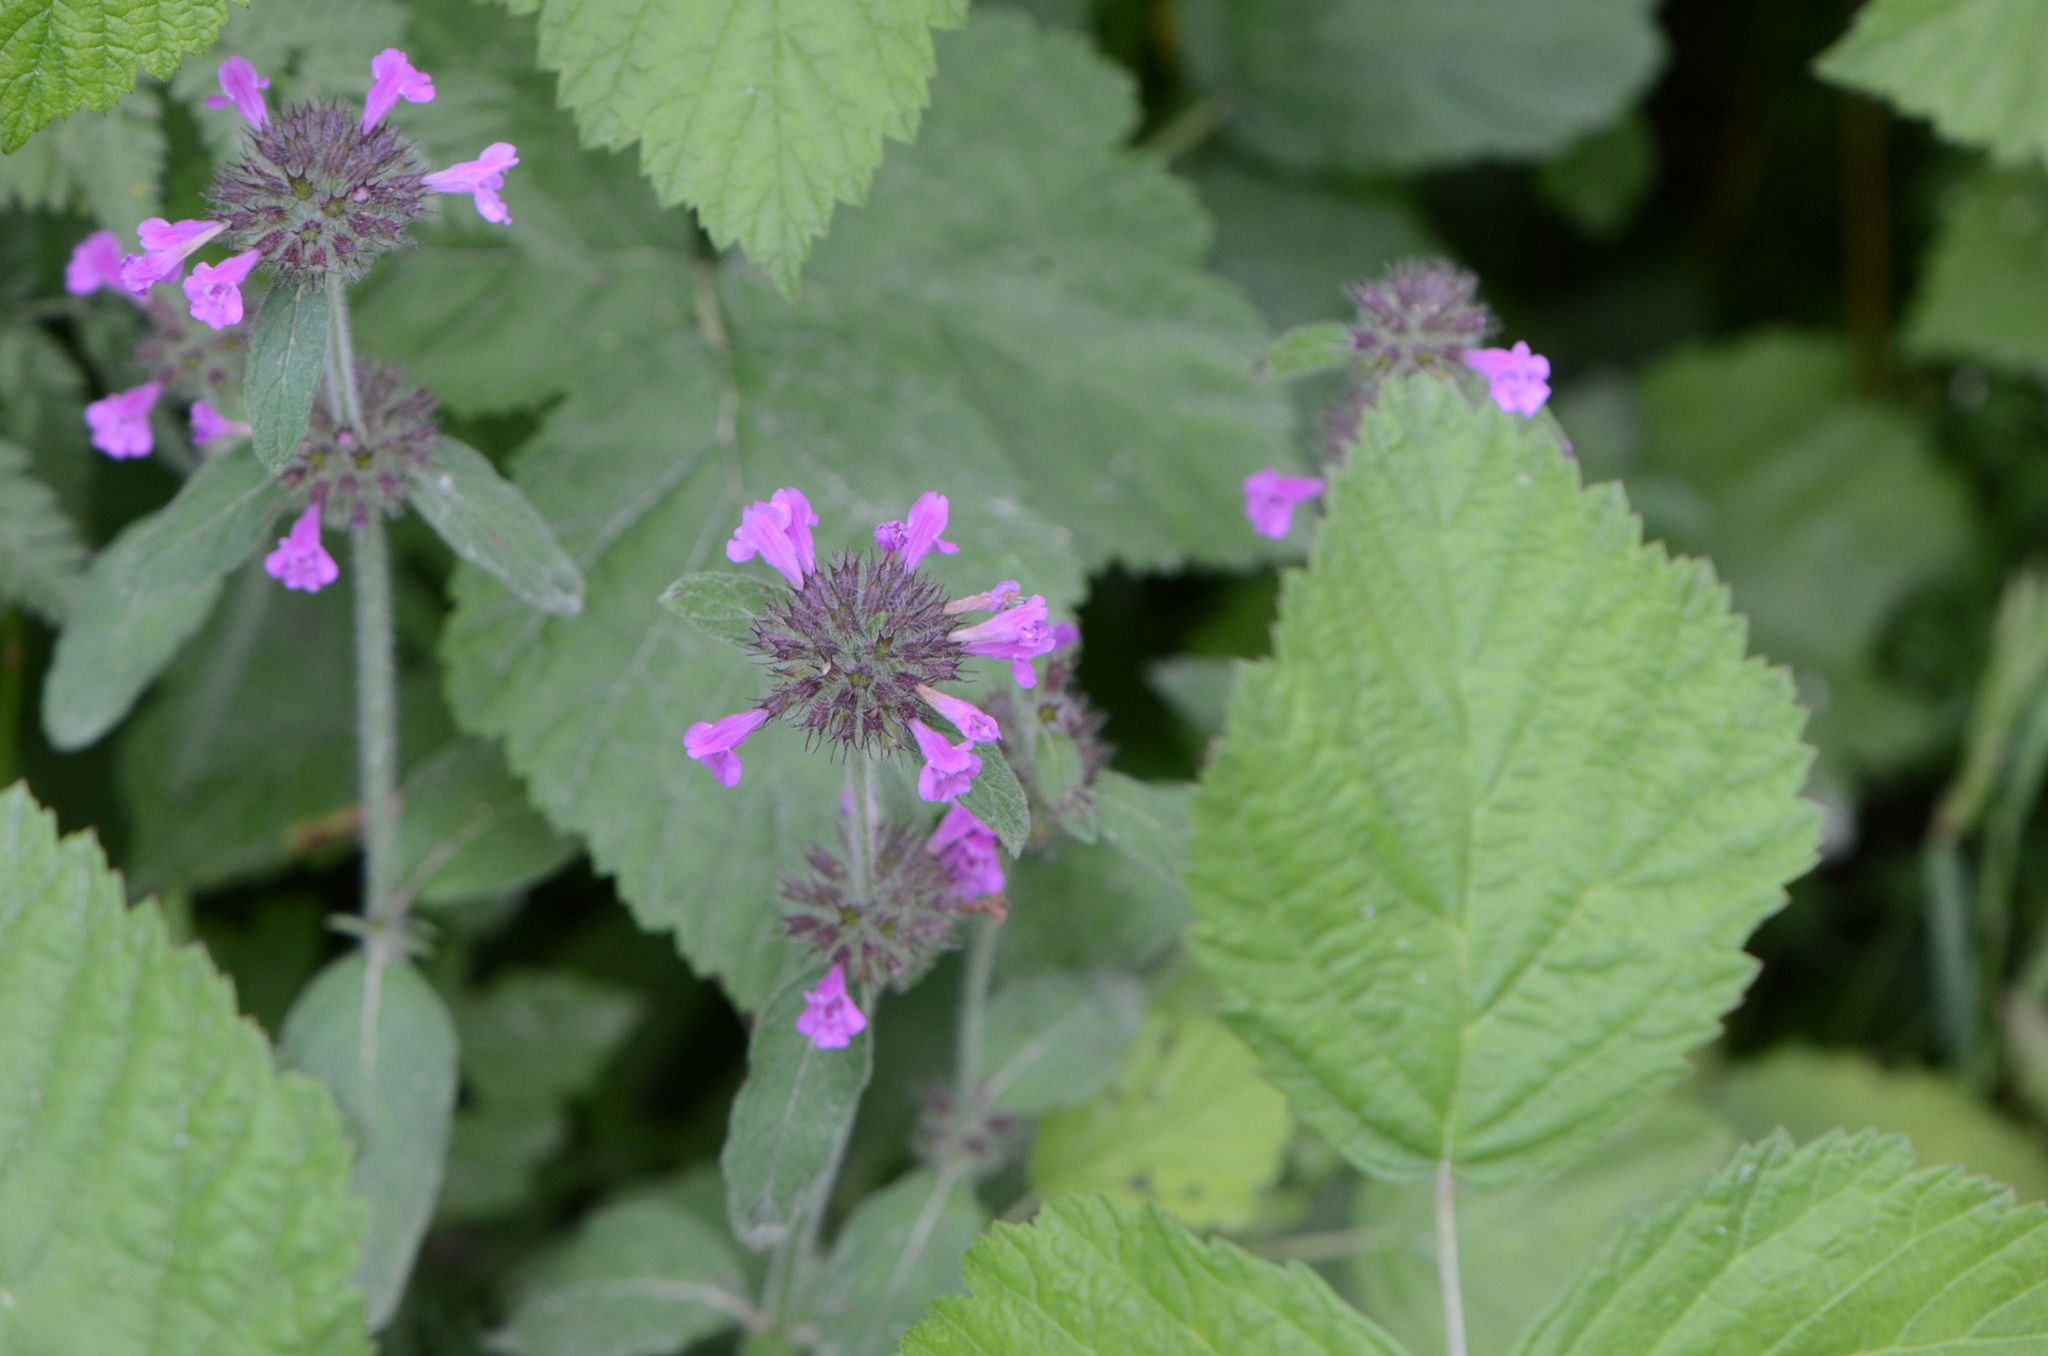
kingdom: Plantae
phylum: Tracheophyta
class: Magnoliopsida
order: Lamiales
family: Lamiaceae
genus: Clinopodium
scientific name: Clinopodium vulgare
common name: Wild basil
